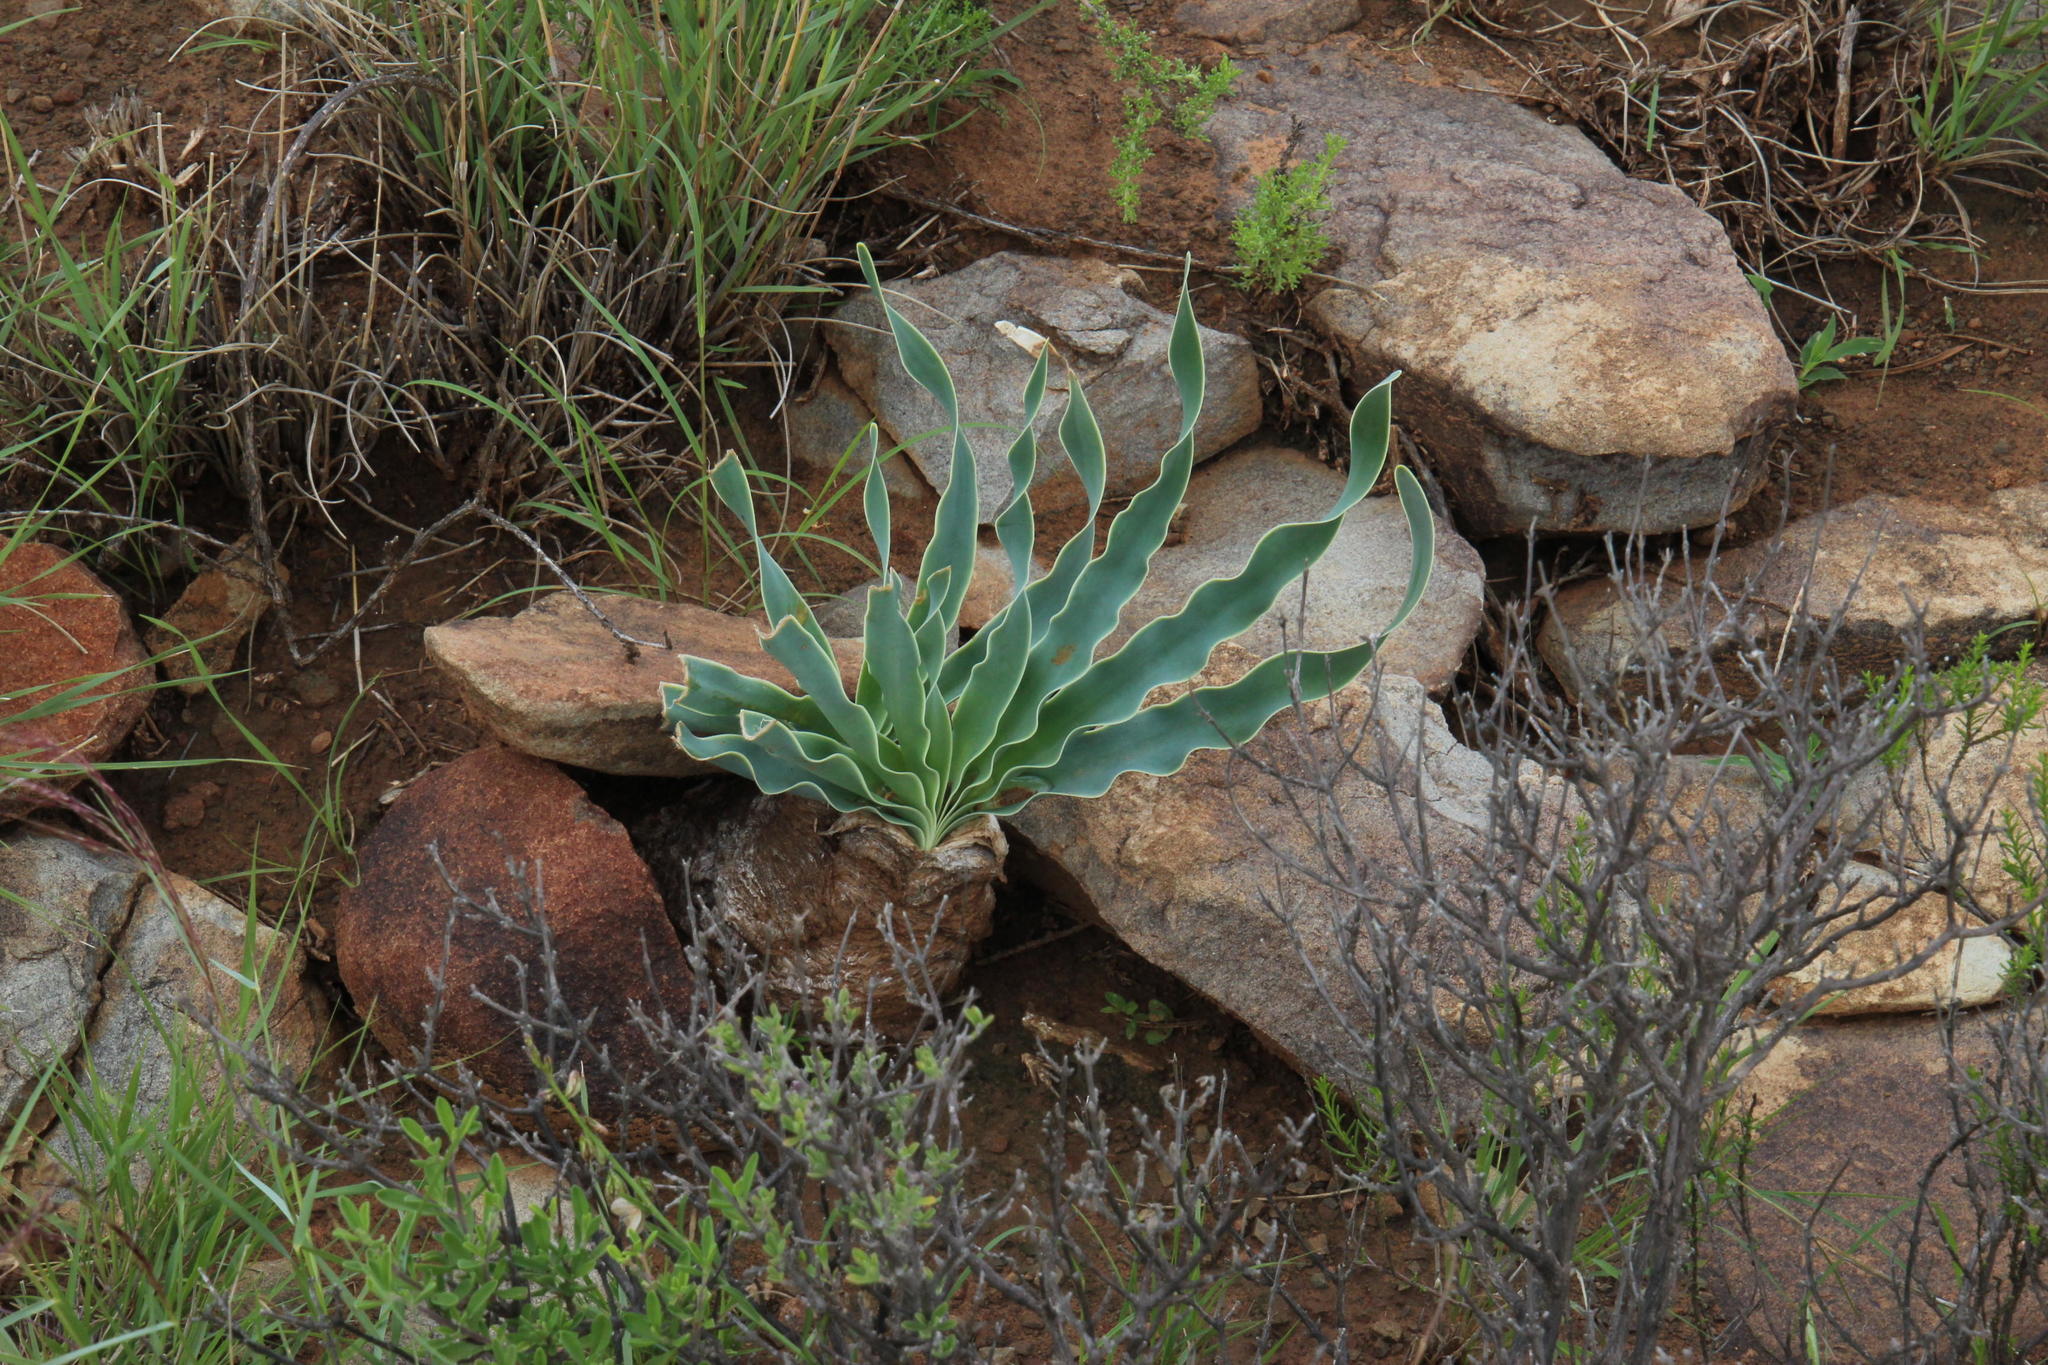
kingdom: Plantae
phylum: Tracheophyta
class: Liliopsida
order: Asparagales
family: Amaryllidaceae
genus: Boophone
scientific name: Boophone disticha
